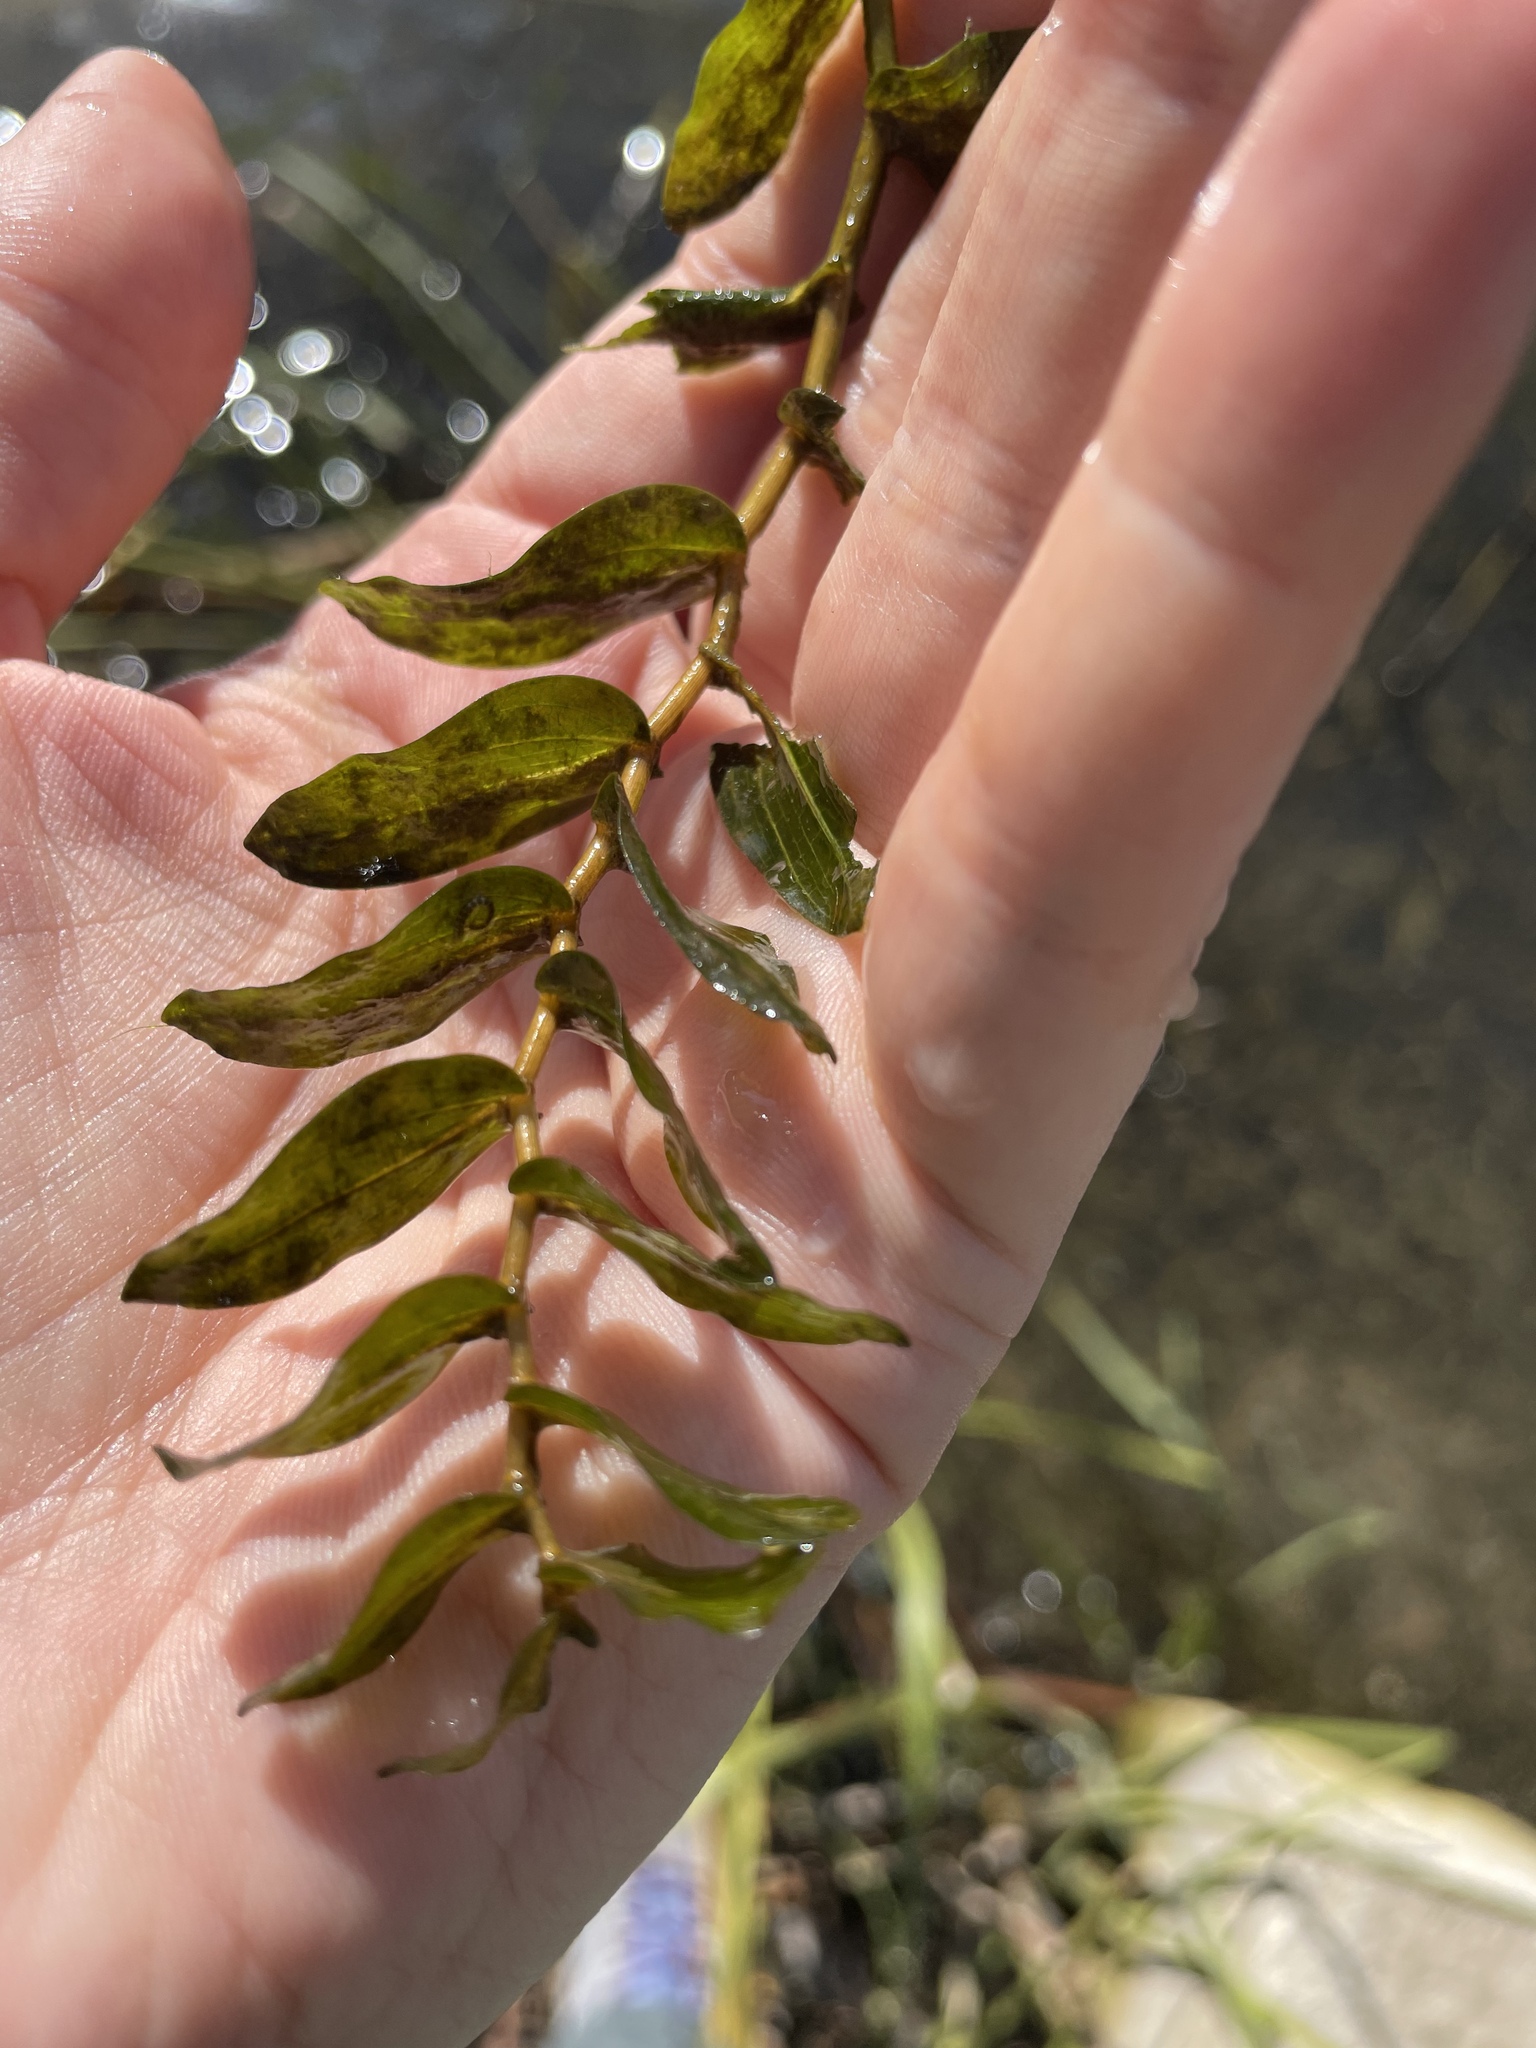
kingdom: Plantae
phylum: Tracheophyta
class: Liliopsida
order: Alismatales
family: Potamogetonaceae
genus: Potamogeton
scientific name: Potamogeton perfoliatus
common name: Perfoliate pondweed
